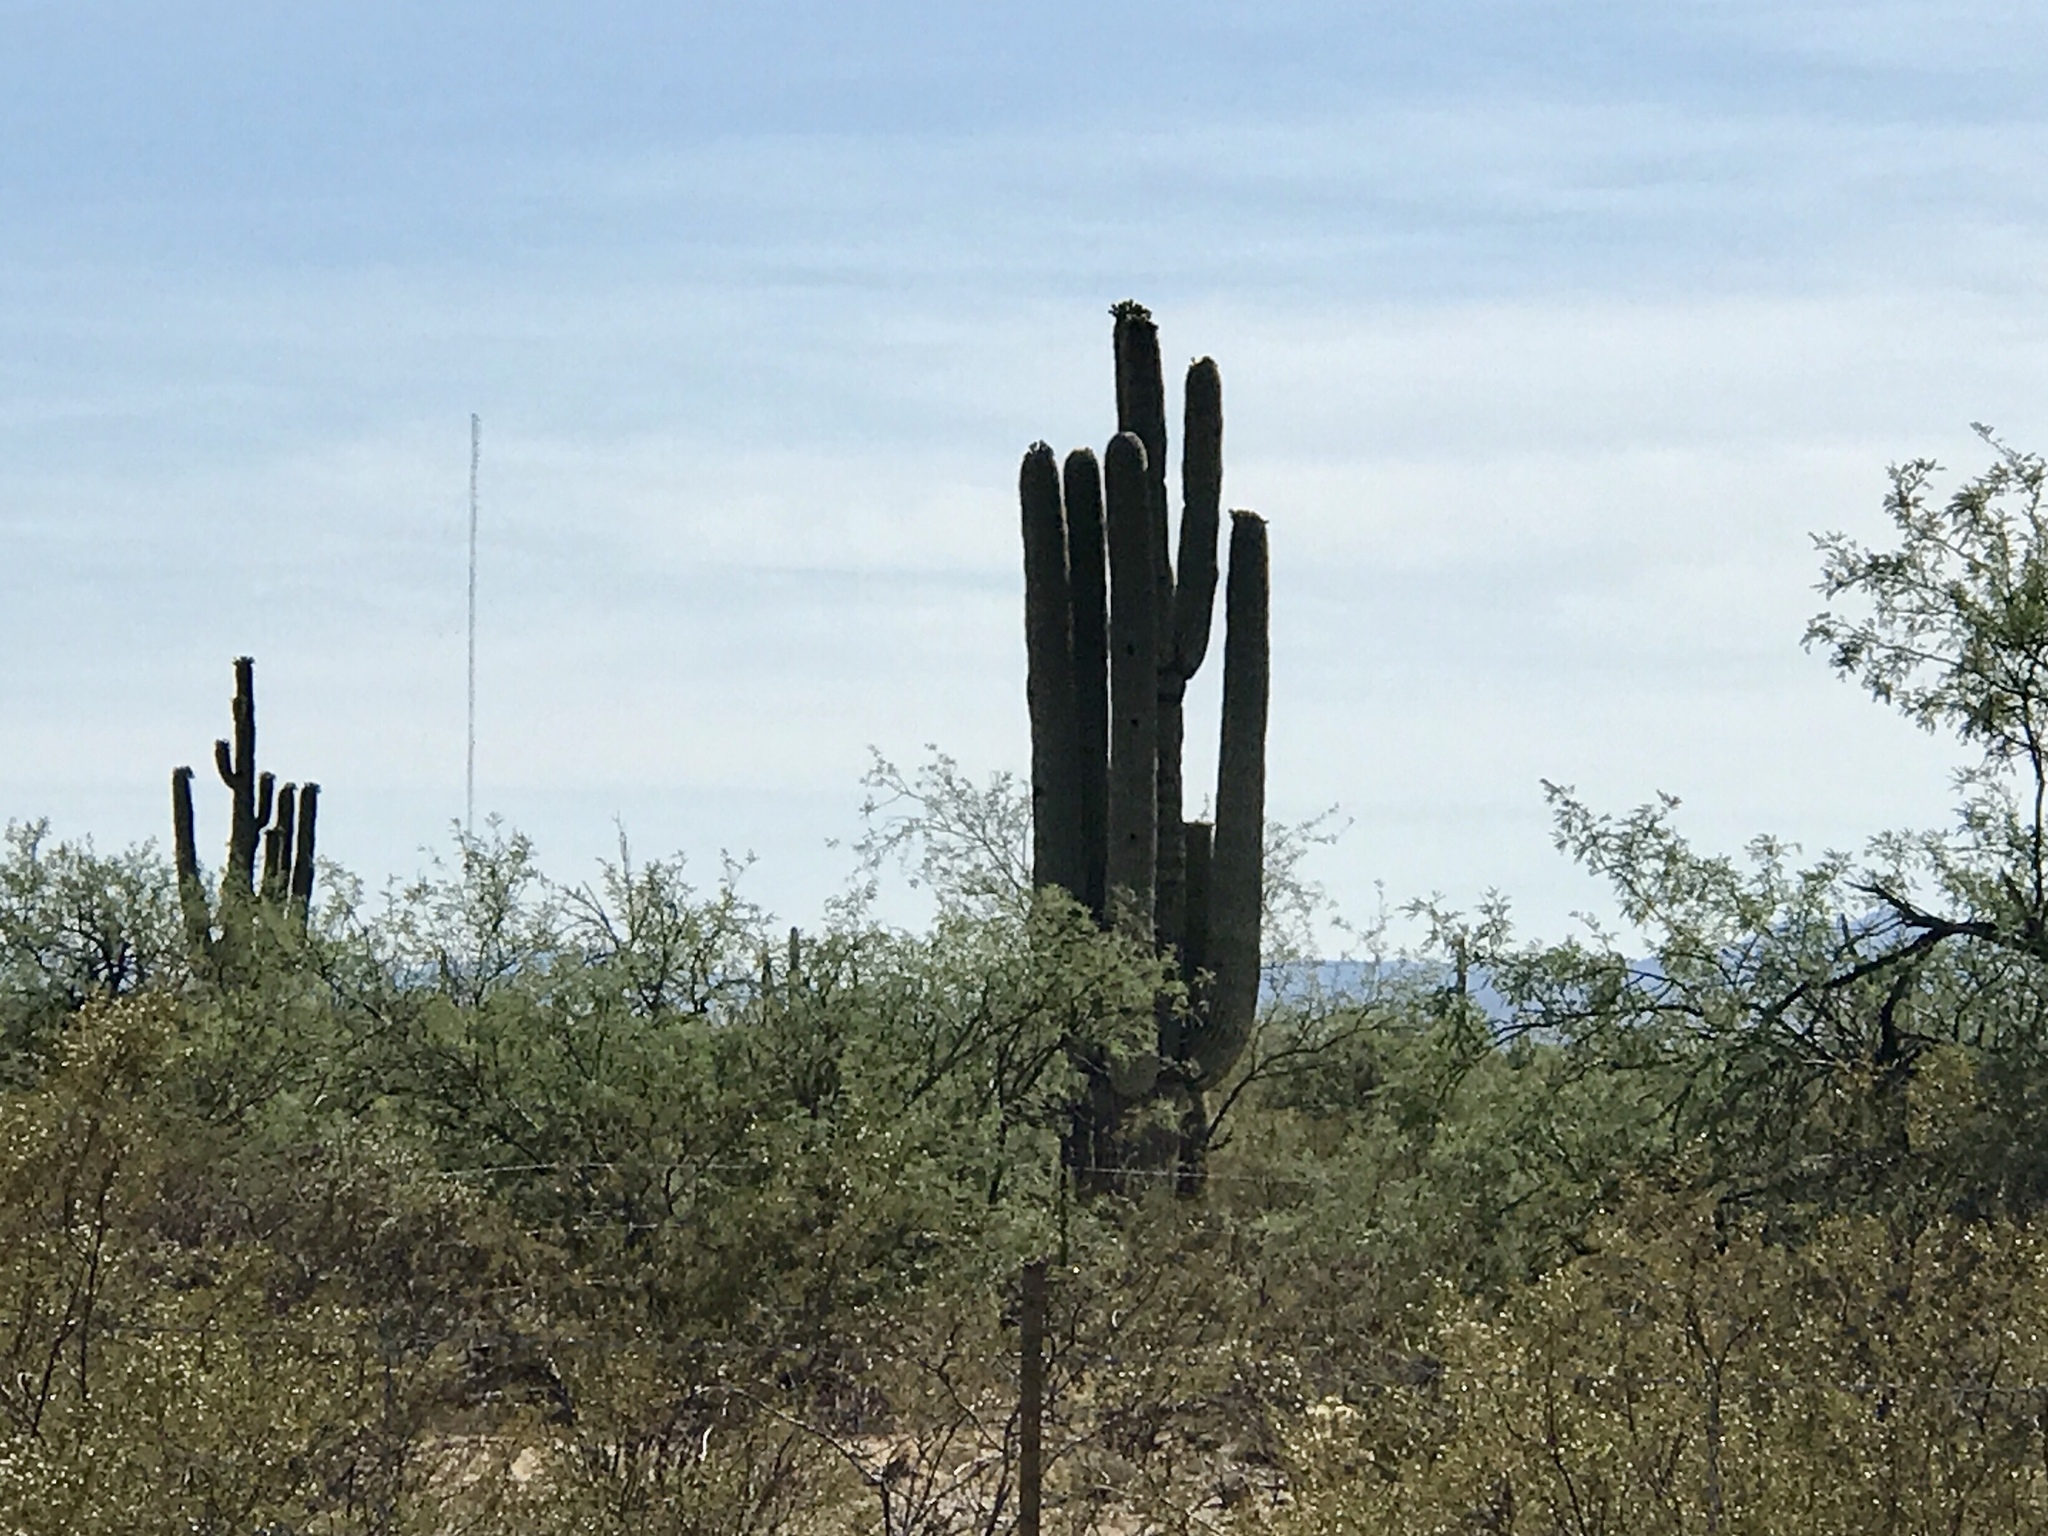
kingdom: Plantae
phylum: Tracheophyta
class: Magnoliopsida
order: Caryophyllales
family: Cactaceae
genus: Carnegiea
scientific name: Carnegiea gigantea
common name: Saguaro
